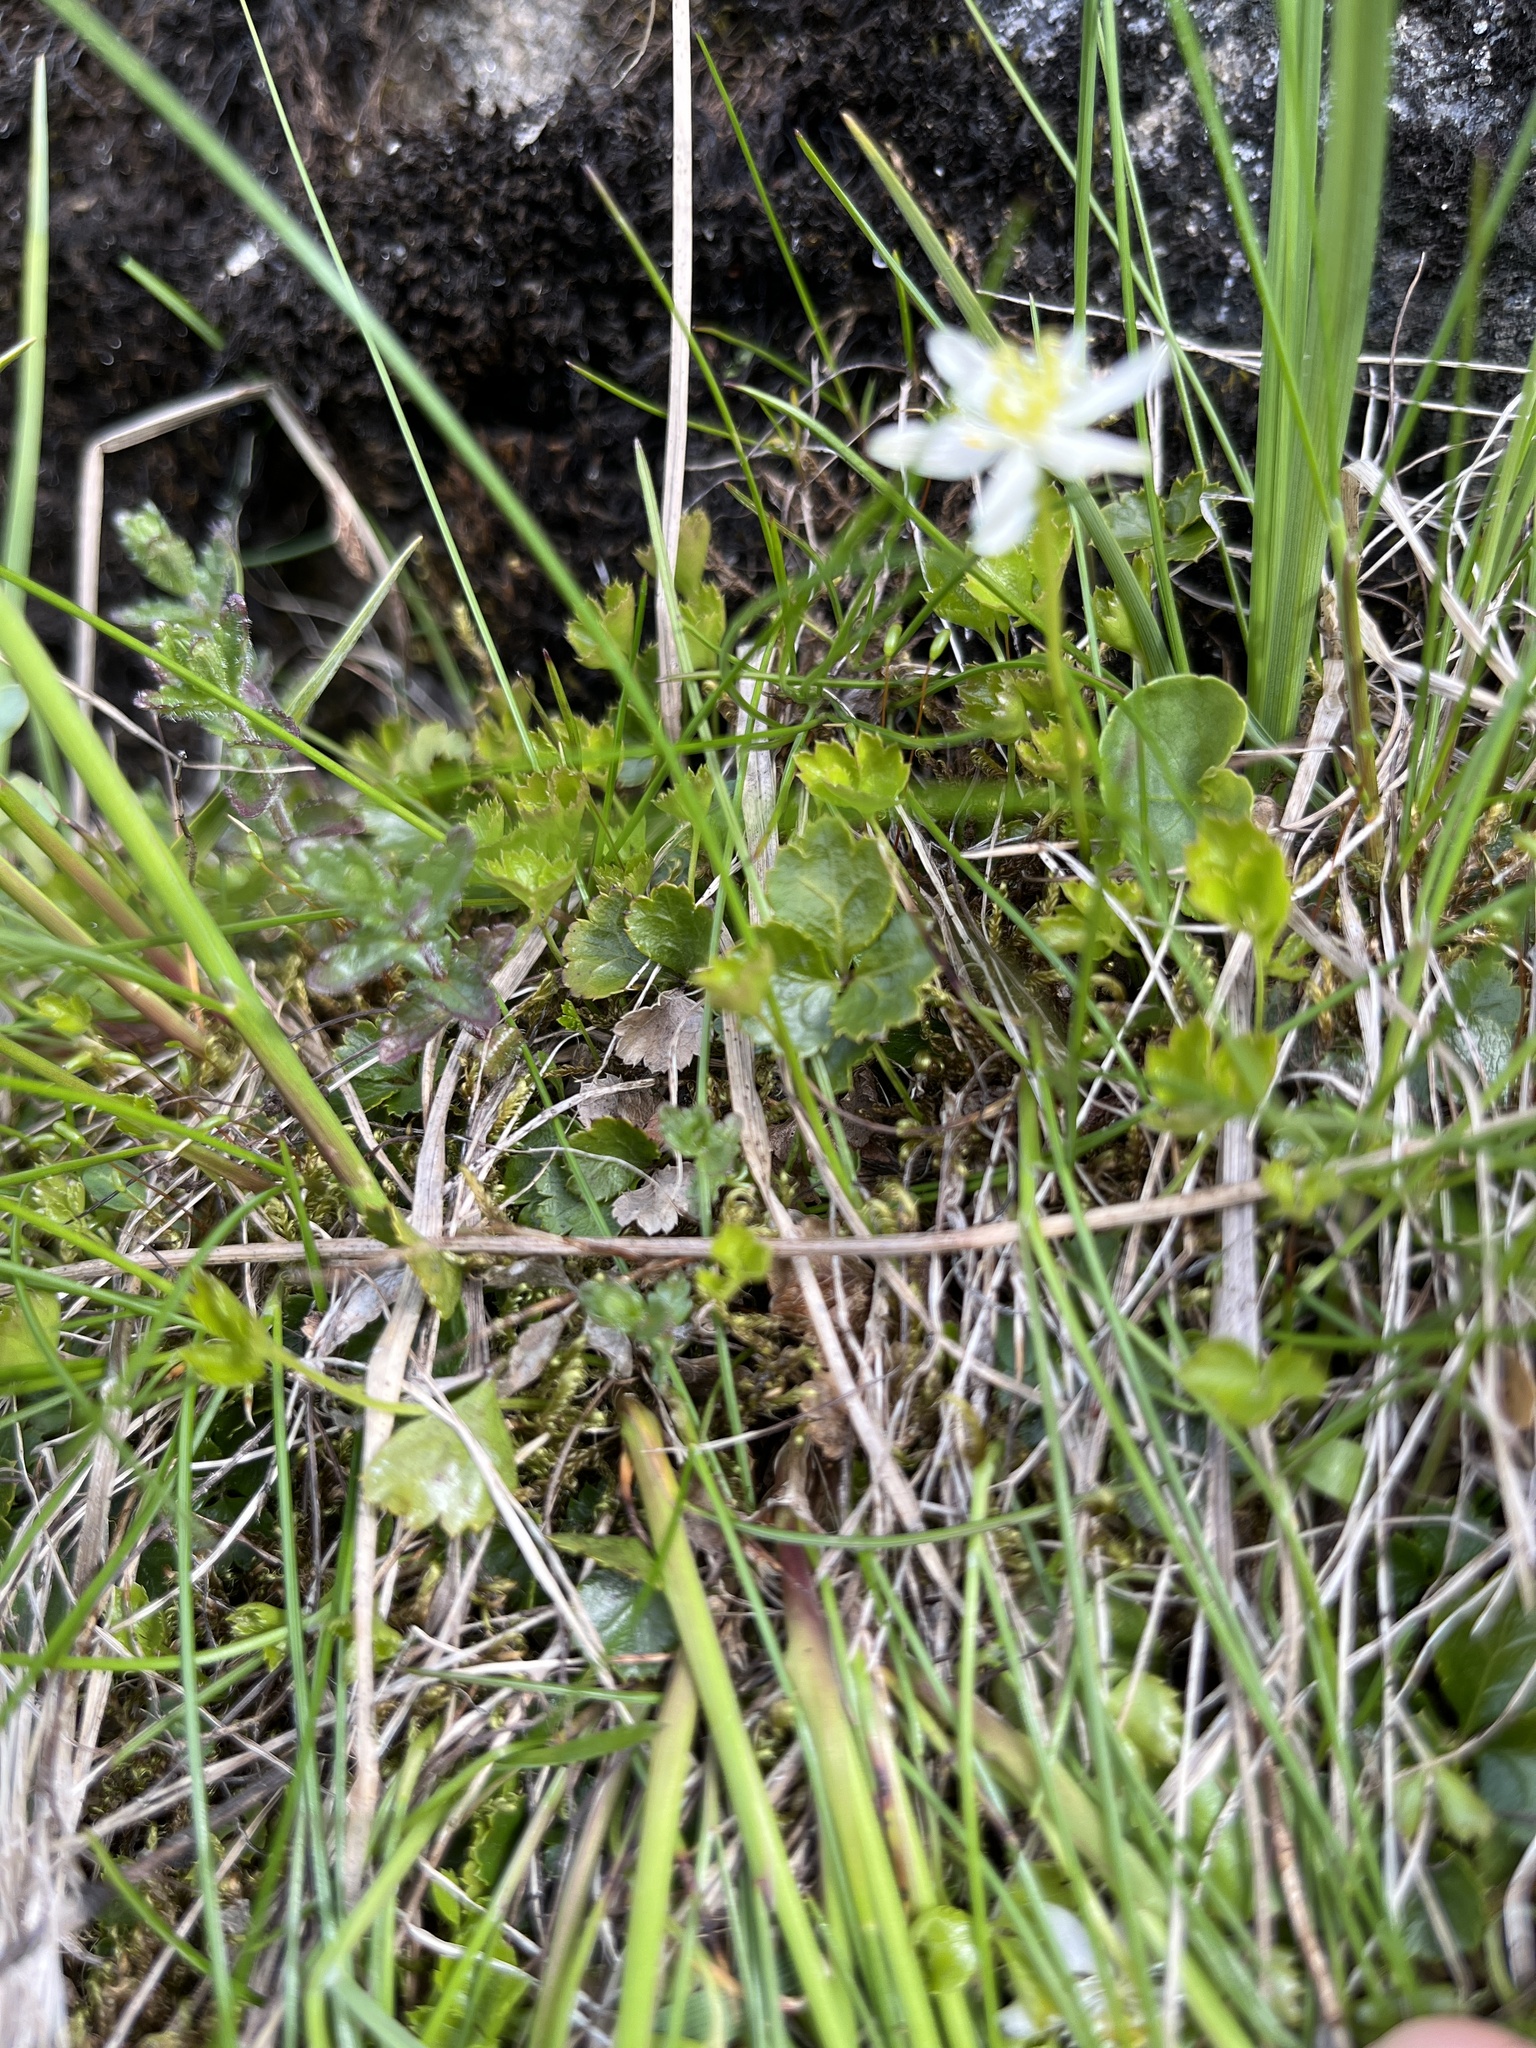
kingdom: Plantae
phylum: Tracheophyta
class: Magnoliopsida
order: Ranunculales
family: Ranunculaceae
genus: Coptis
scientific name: Coptis trifolia
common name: Canker-root
